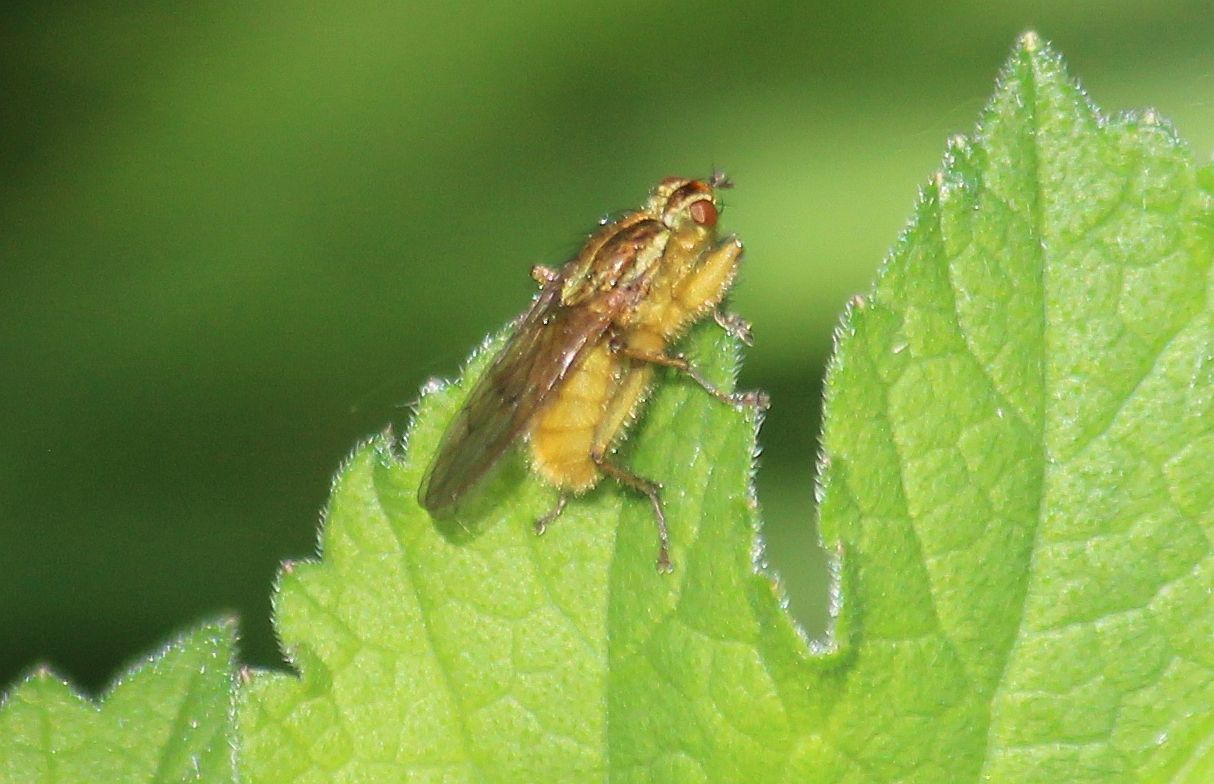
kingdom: Animalia
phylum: Arthropoda
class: Insecta
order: Diptera
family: Scathophagidae
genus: Scathophaga
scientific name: Scathophaga stercoraria
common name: Yellow dung fly
